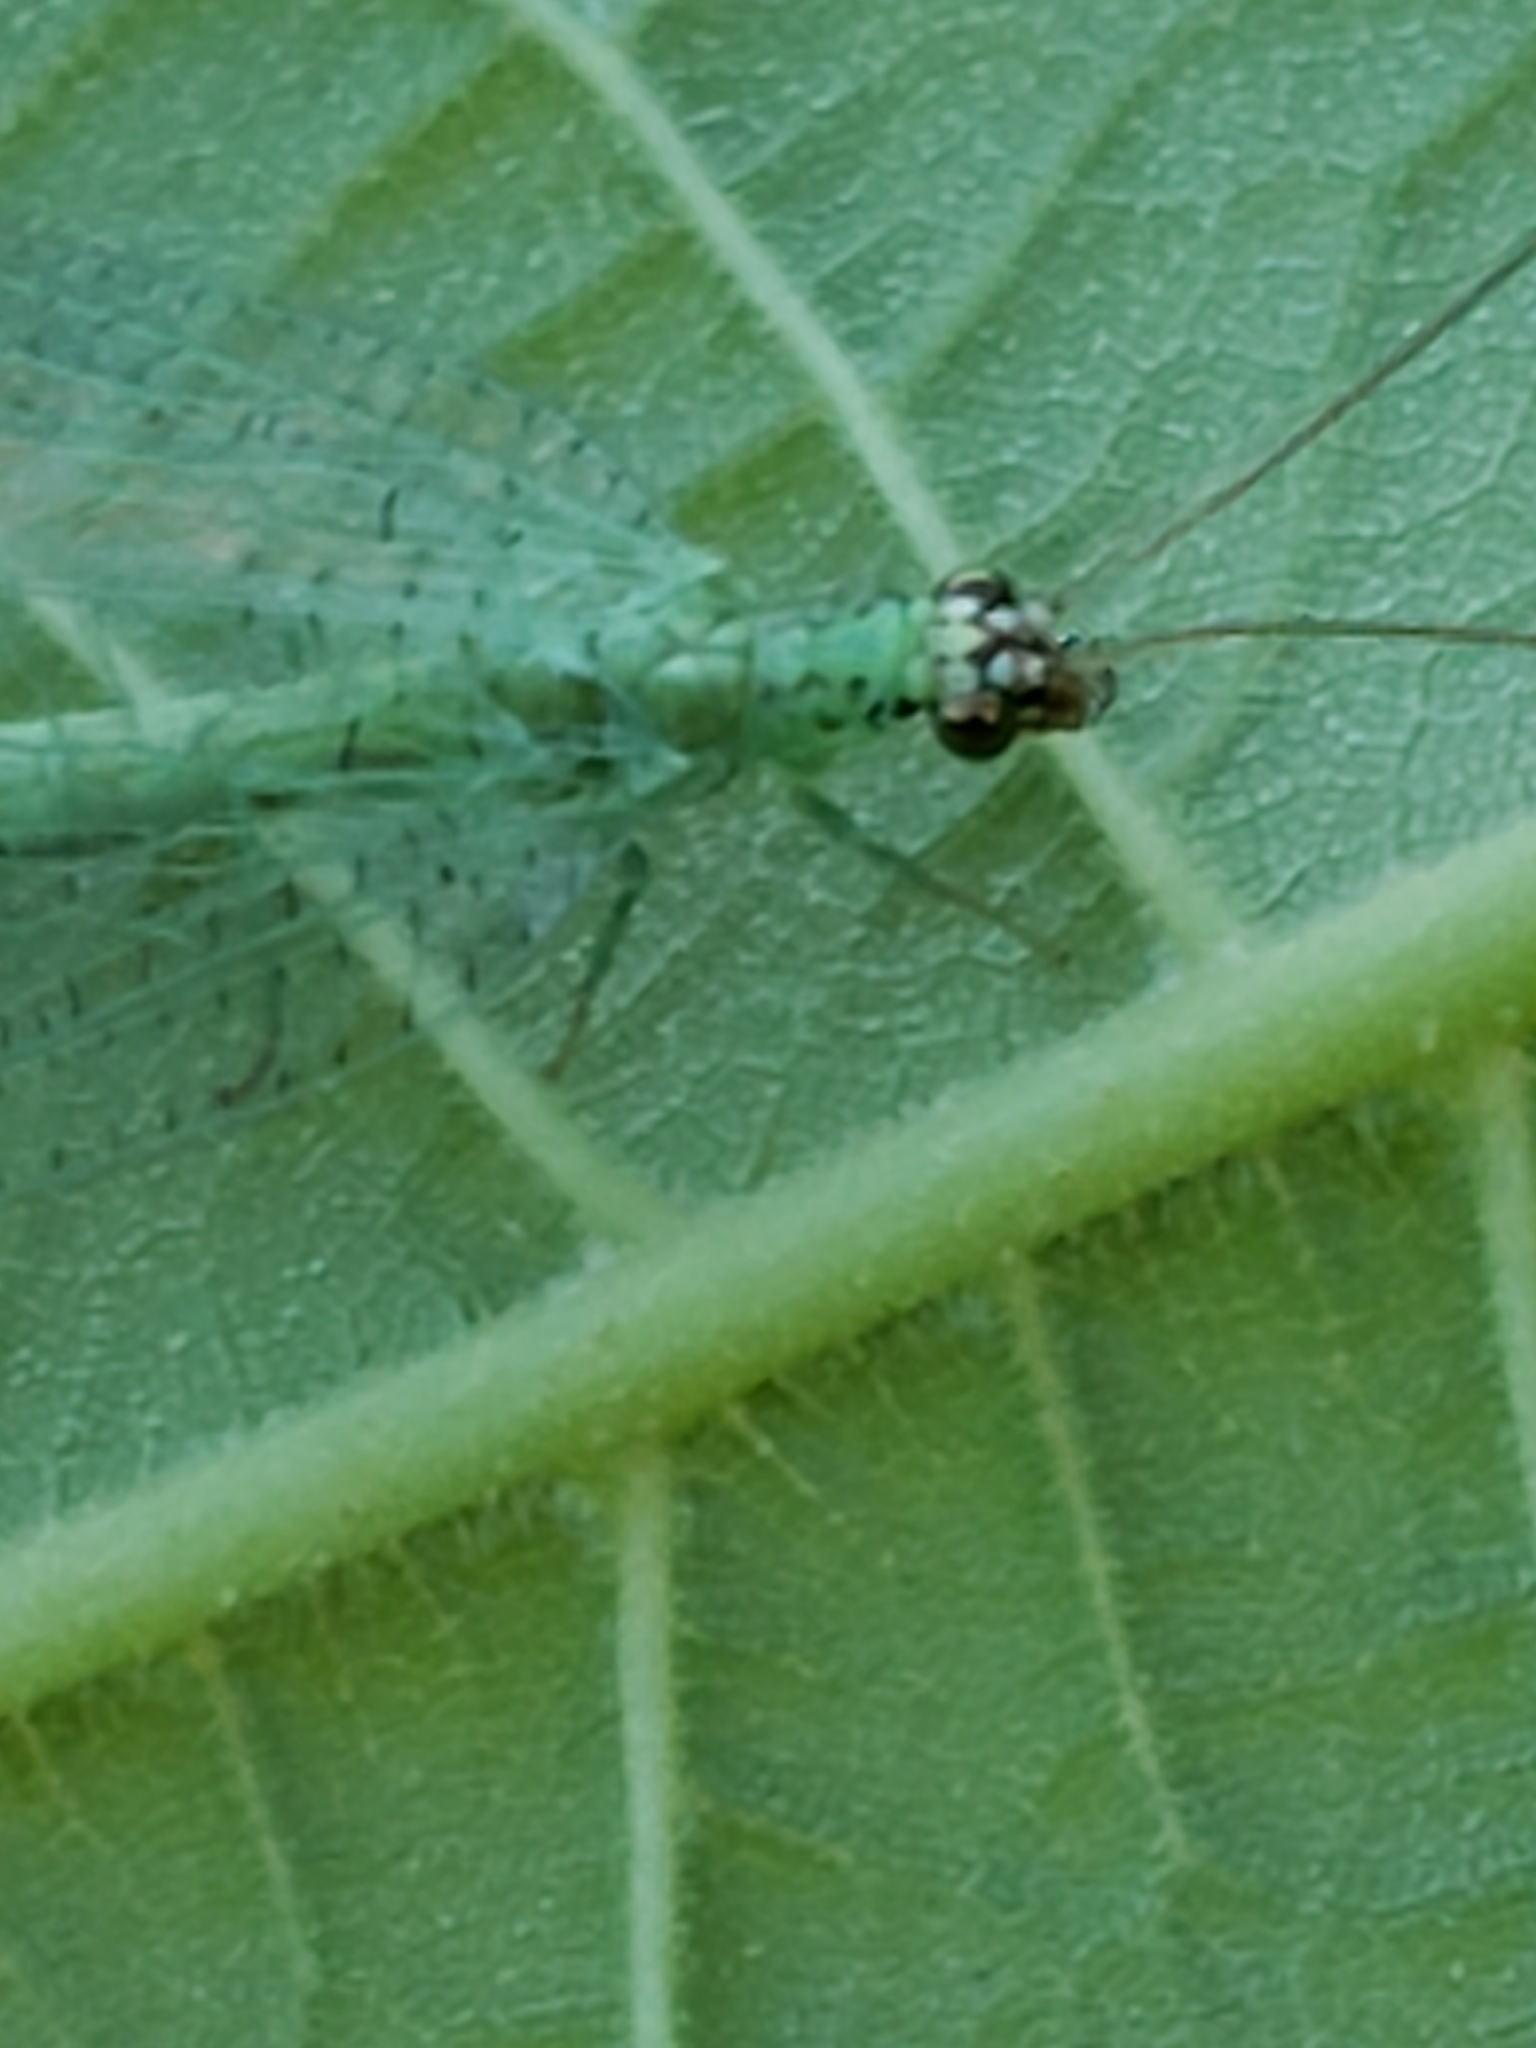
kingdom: Animalia
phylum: Arthropoda
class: Insecta
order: Neuroptera
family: Chrysopidae
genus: Chrysopa
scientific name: Chrysopa oculata
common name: Golden-eyed lacewing
